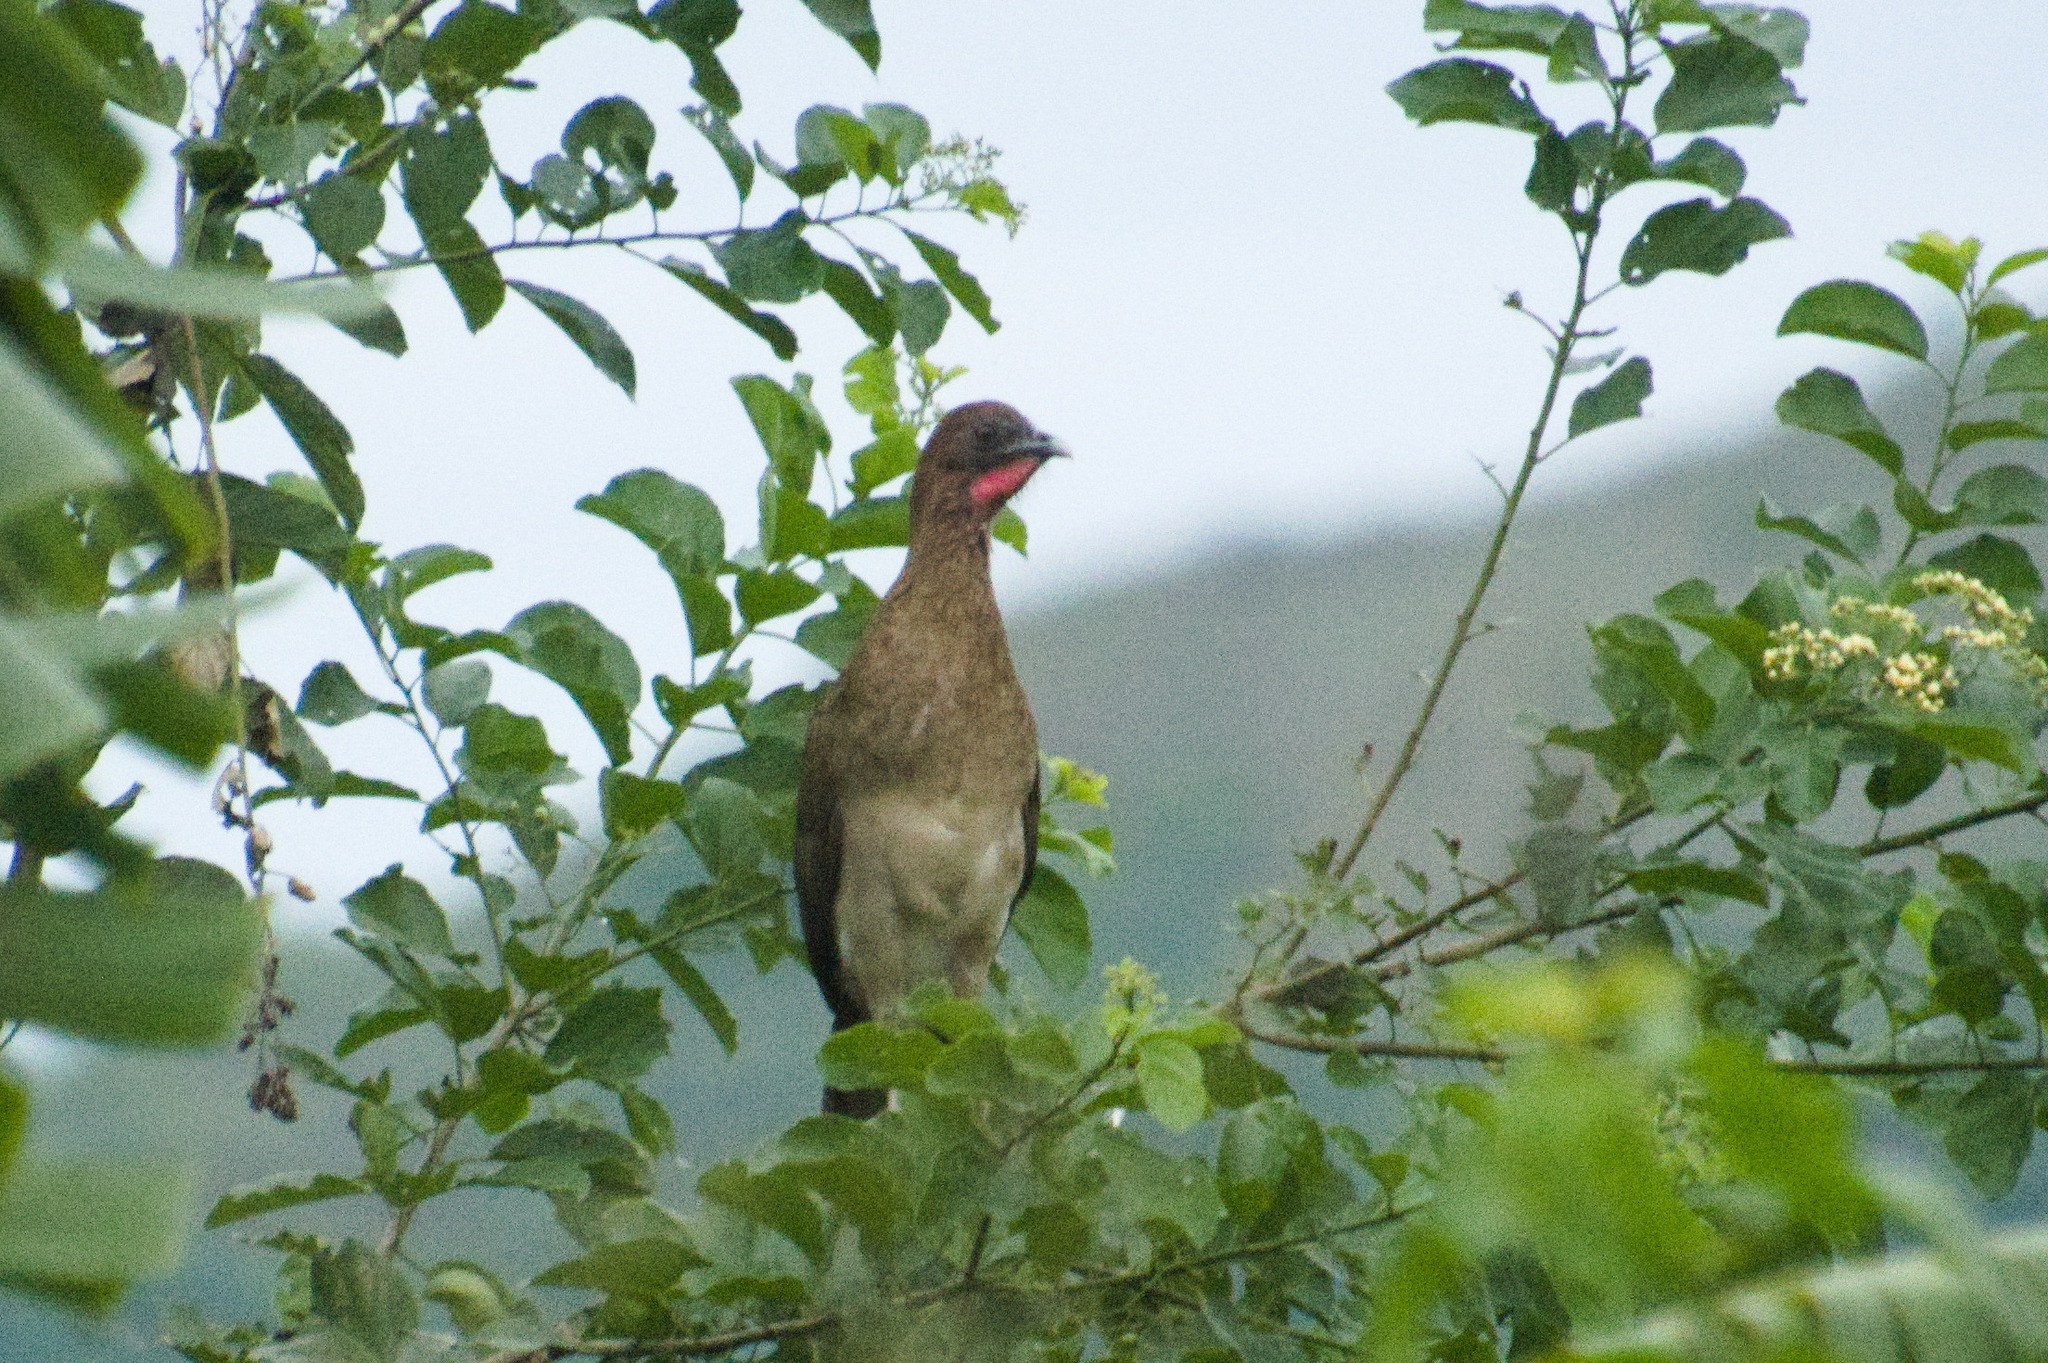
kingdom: Animalia
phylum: Chordata
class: Aves
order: Galliformes
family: Cracidae
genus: Ortalis
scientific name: Ortalis garrula
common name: Chestnut-winged chachalaca
